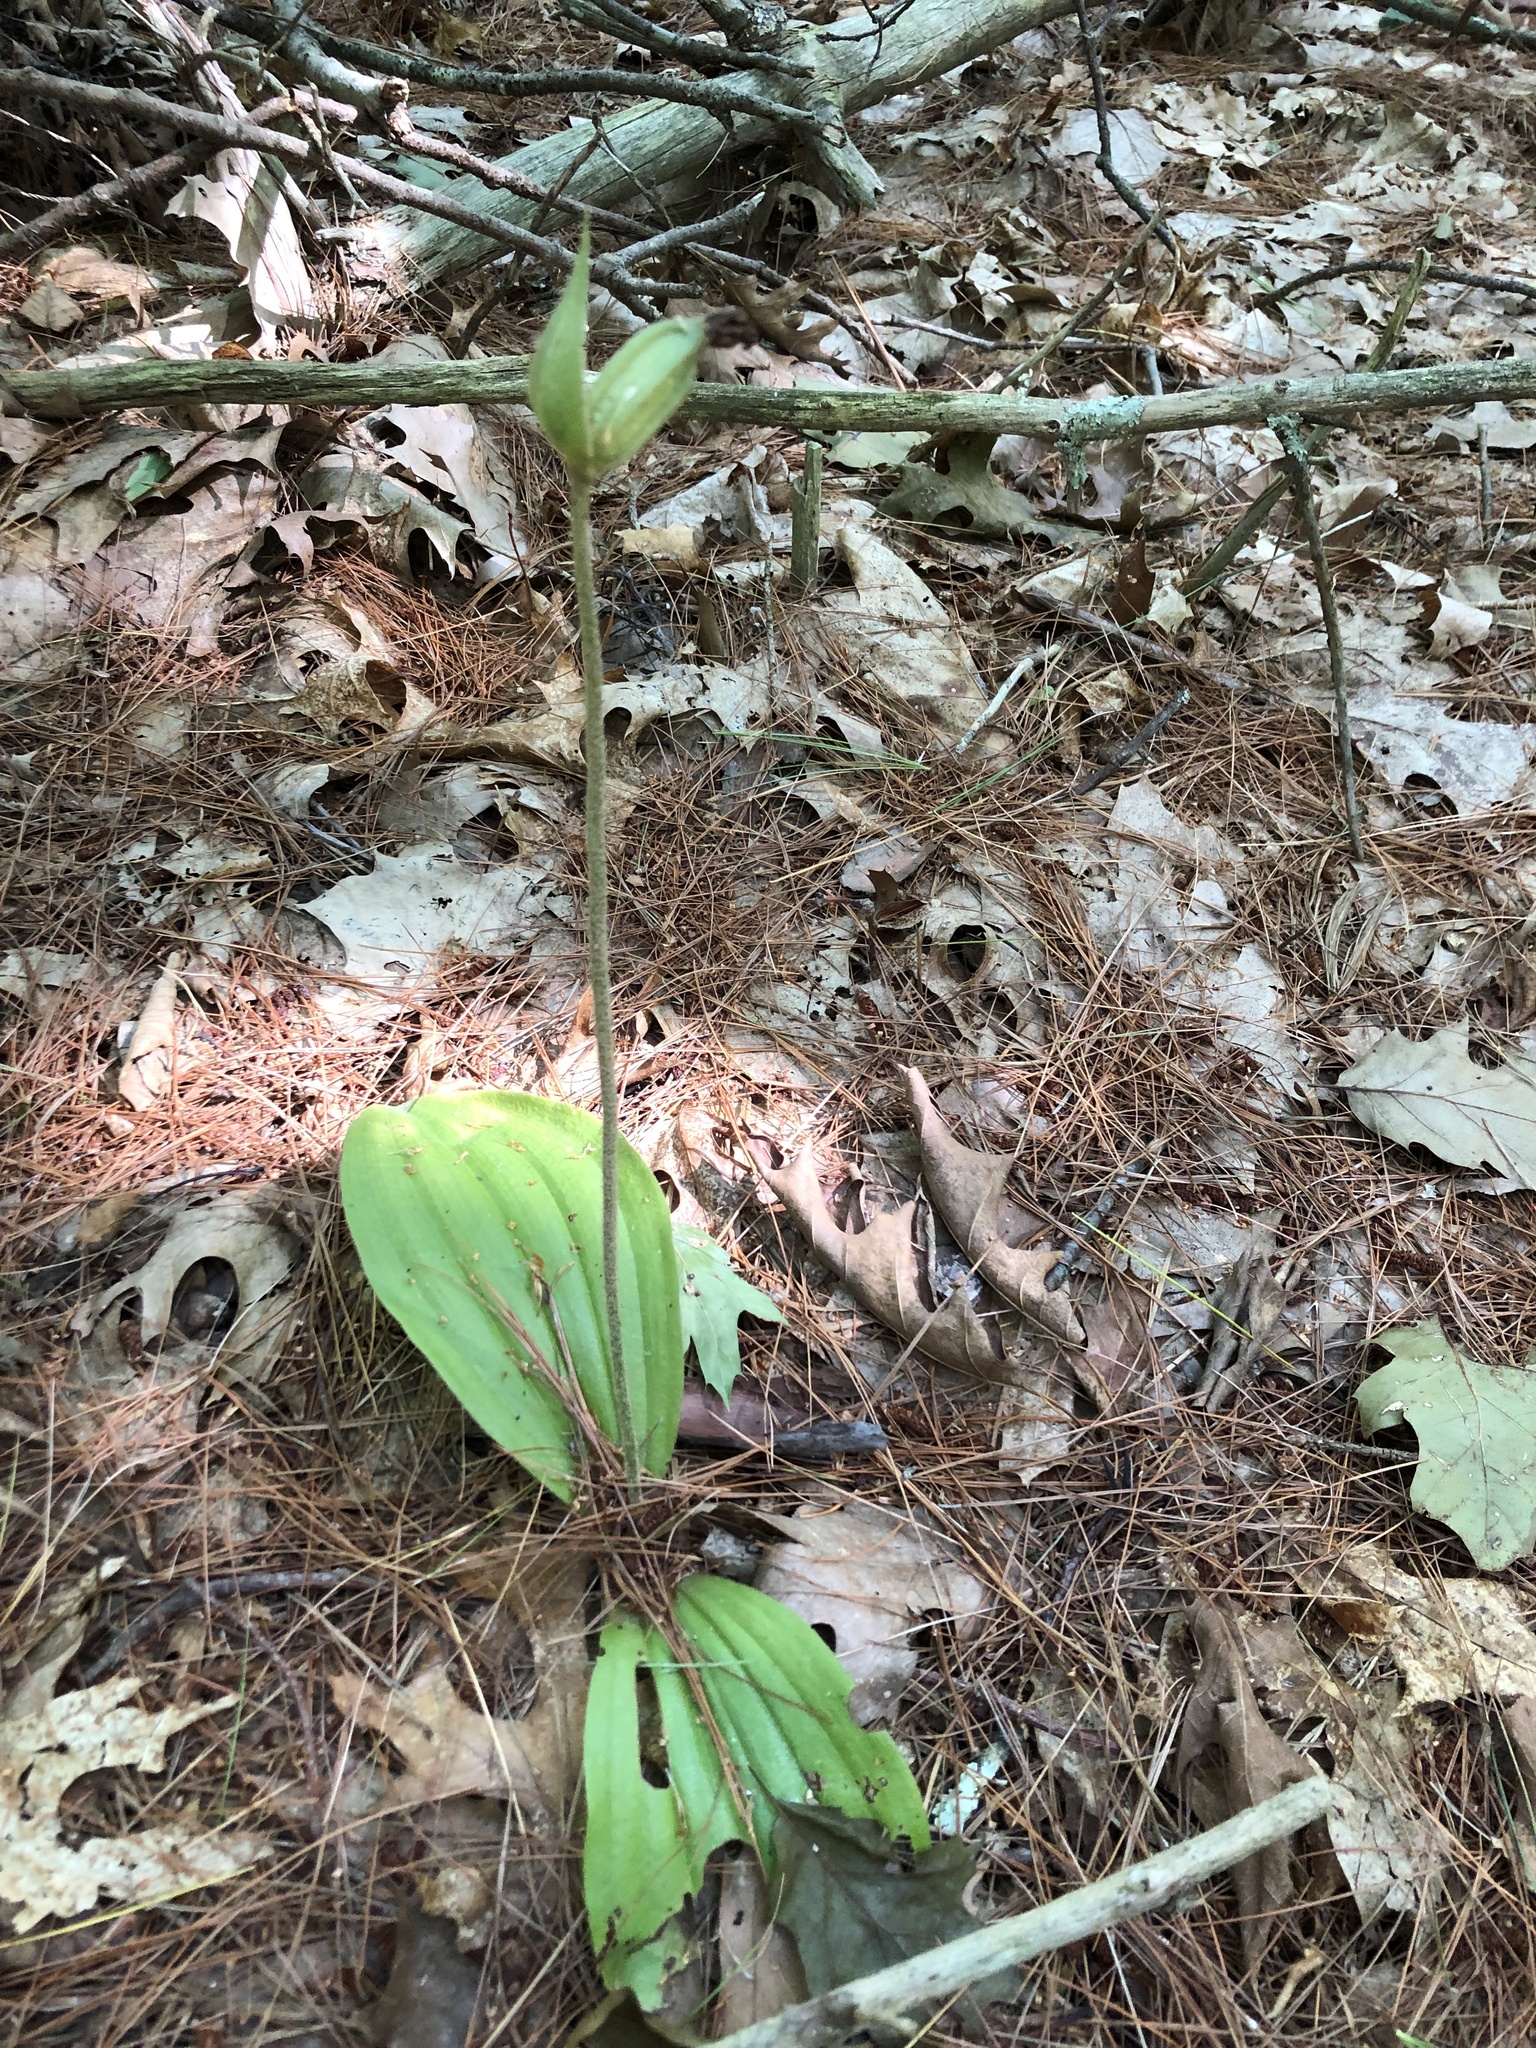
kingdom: Plantae
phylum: Tracheophyta
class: Liliopsida
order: Asparagales
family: Orchidaceae
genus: Cypripedium
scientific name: Cypripedium acaule
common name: Pink lady's-slipper
